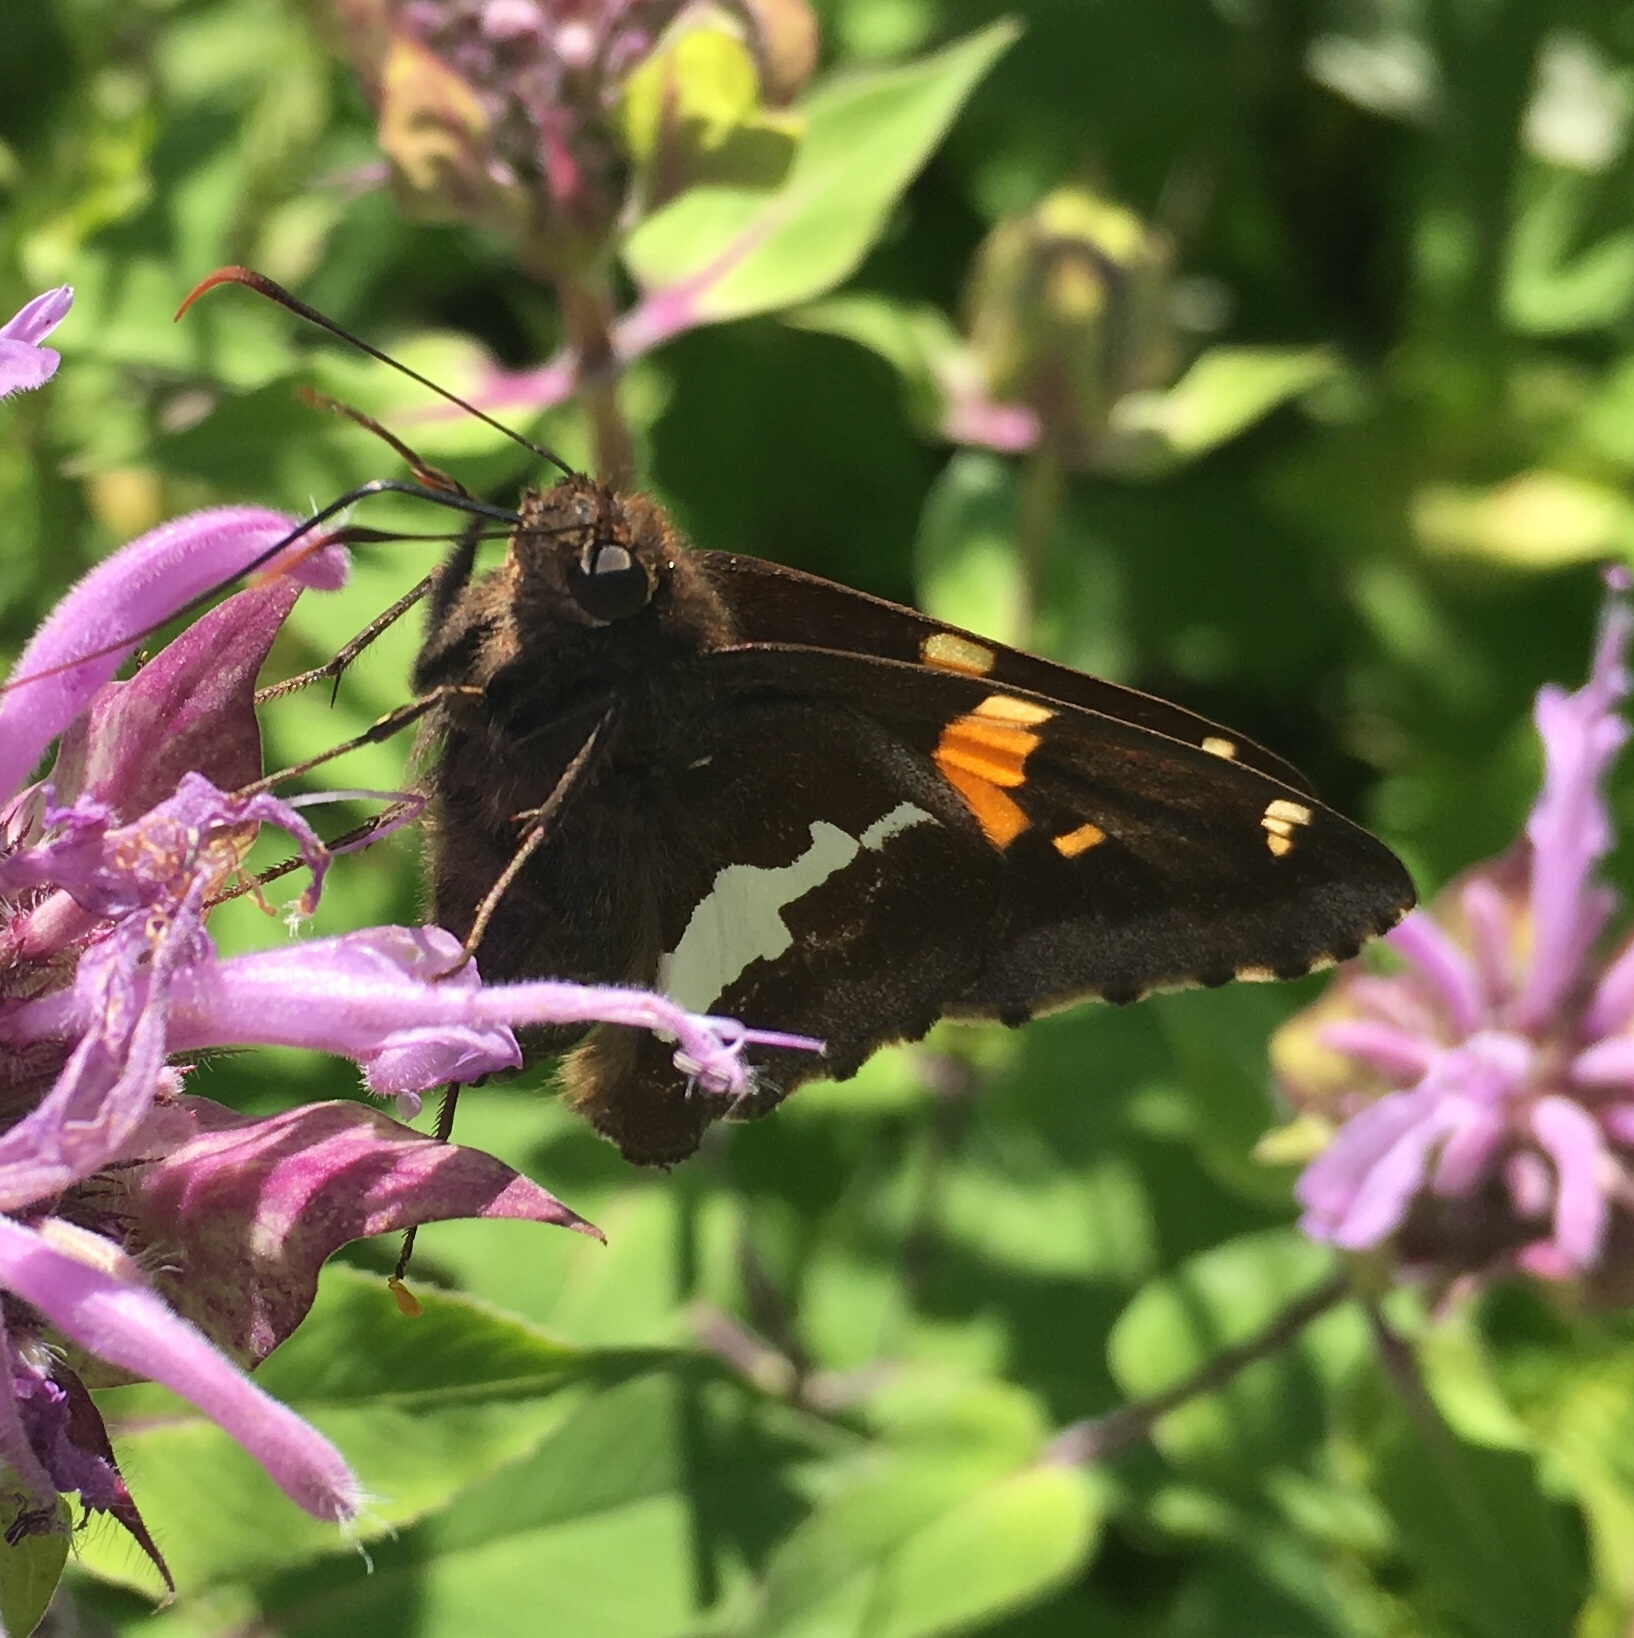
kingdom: Animalia
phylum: Arthropoda
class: Insecta
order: Lepidoptera
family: Hesperiidae
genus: Epargyreus
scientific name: Epargyreus clarus
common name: Silver-spotted skipper
